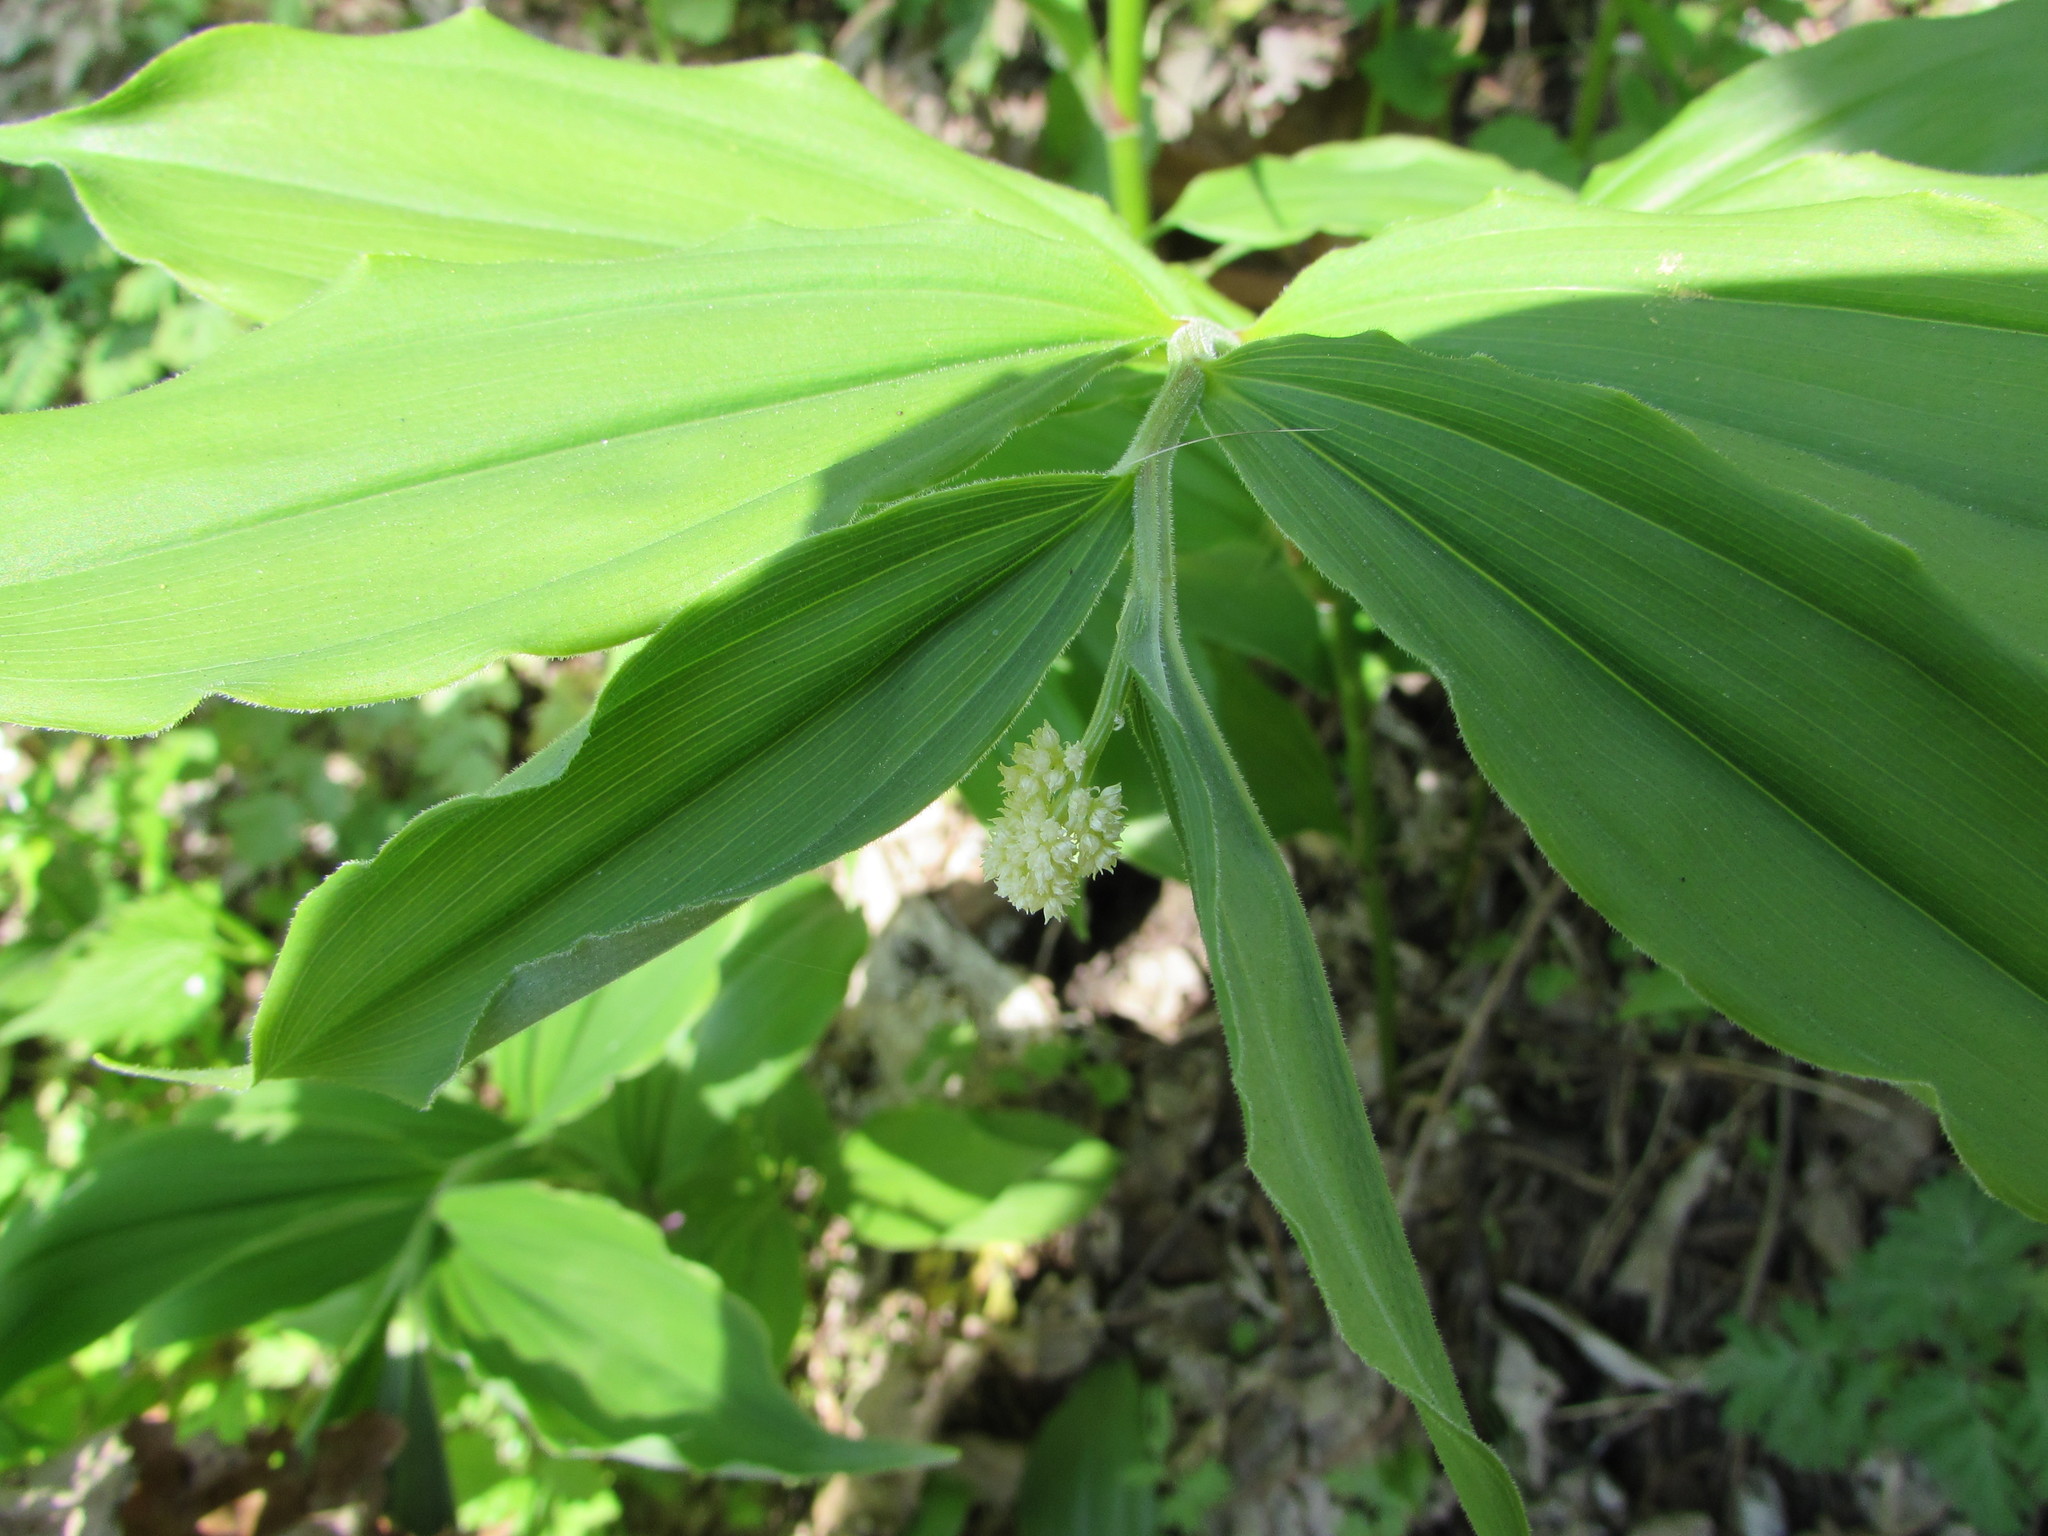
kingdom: Plantae
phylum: Tracheophyta
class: Liliopsida
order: Asparagales
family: Asparagaceae
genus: Maianthemum
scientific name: Maianthemum racemosum
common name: False spikenard
